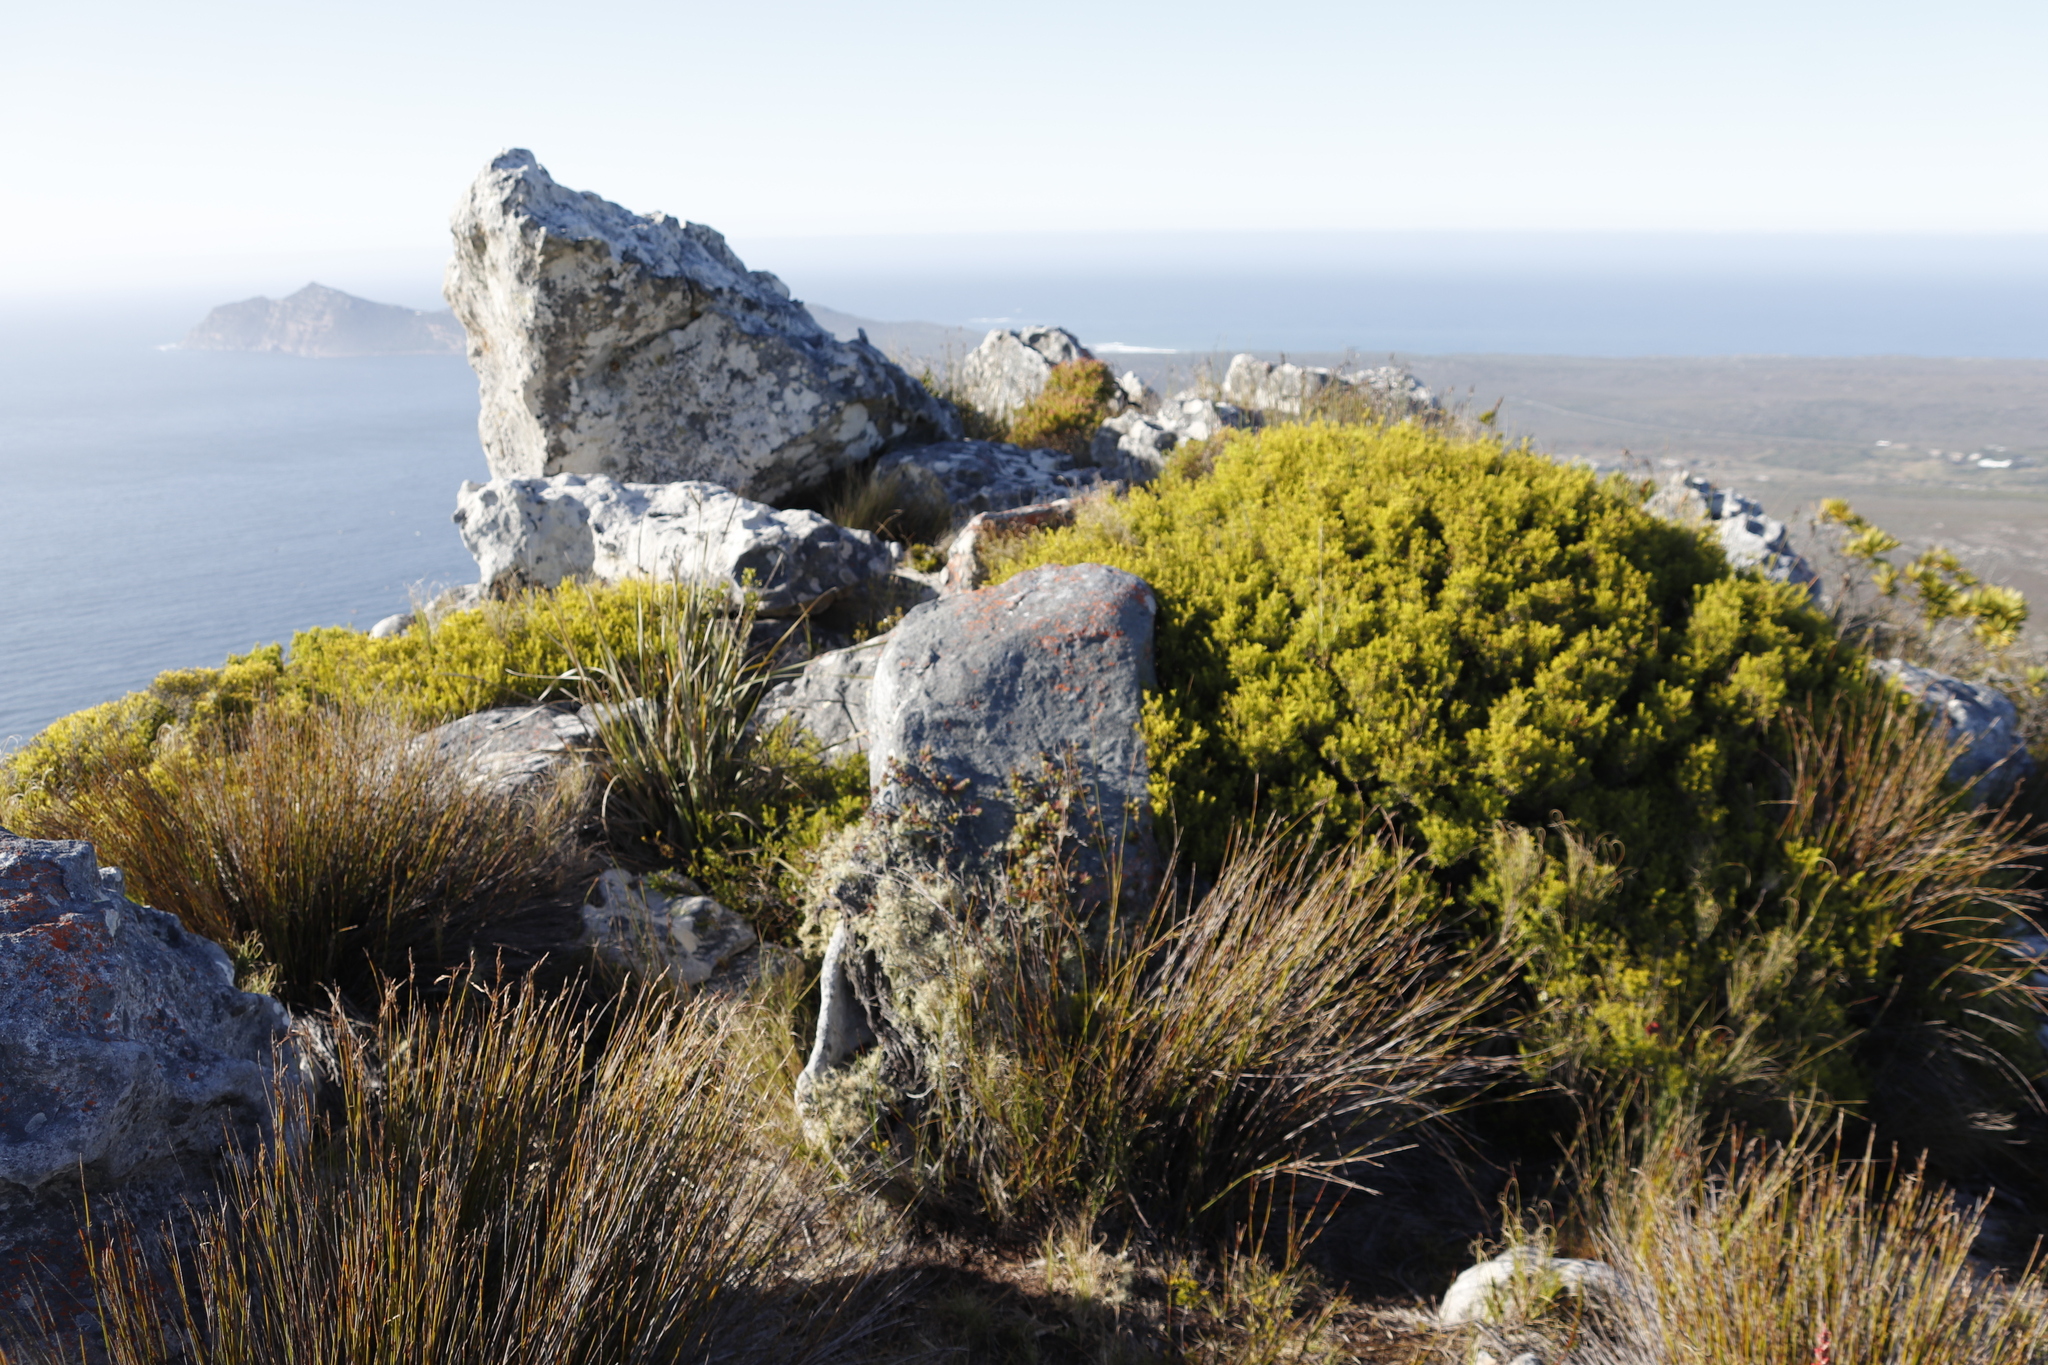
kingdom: Plantae
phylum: Tracheophyta
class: Magnoliopsida
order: Sapindales
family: Rutaceae
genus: Coleonema
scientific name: Coleonema album
